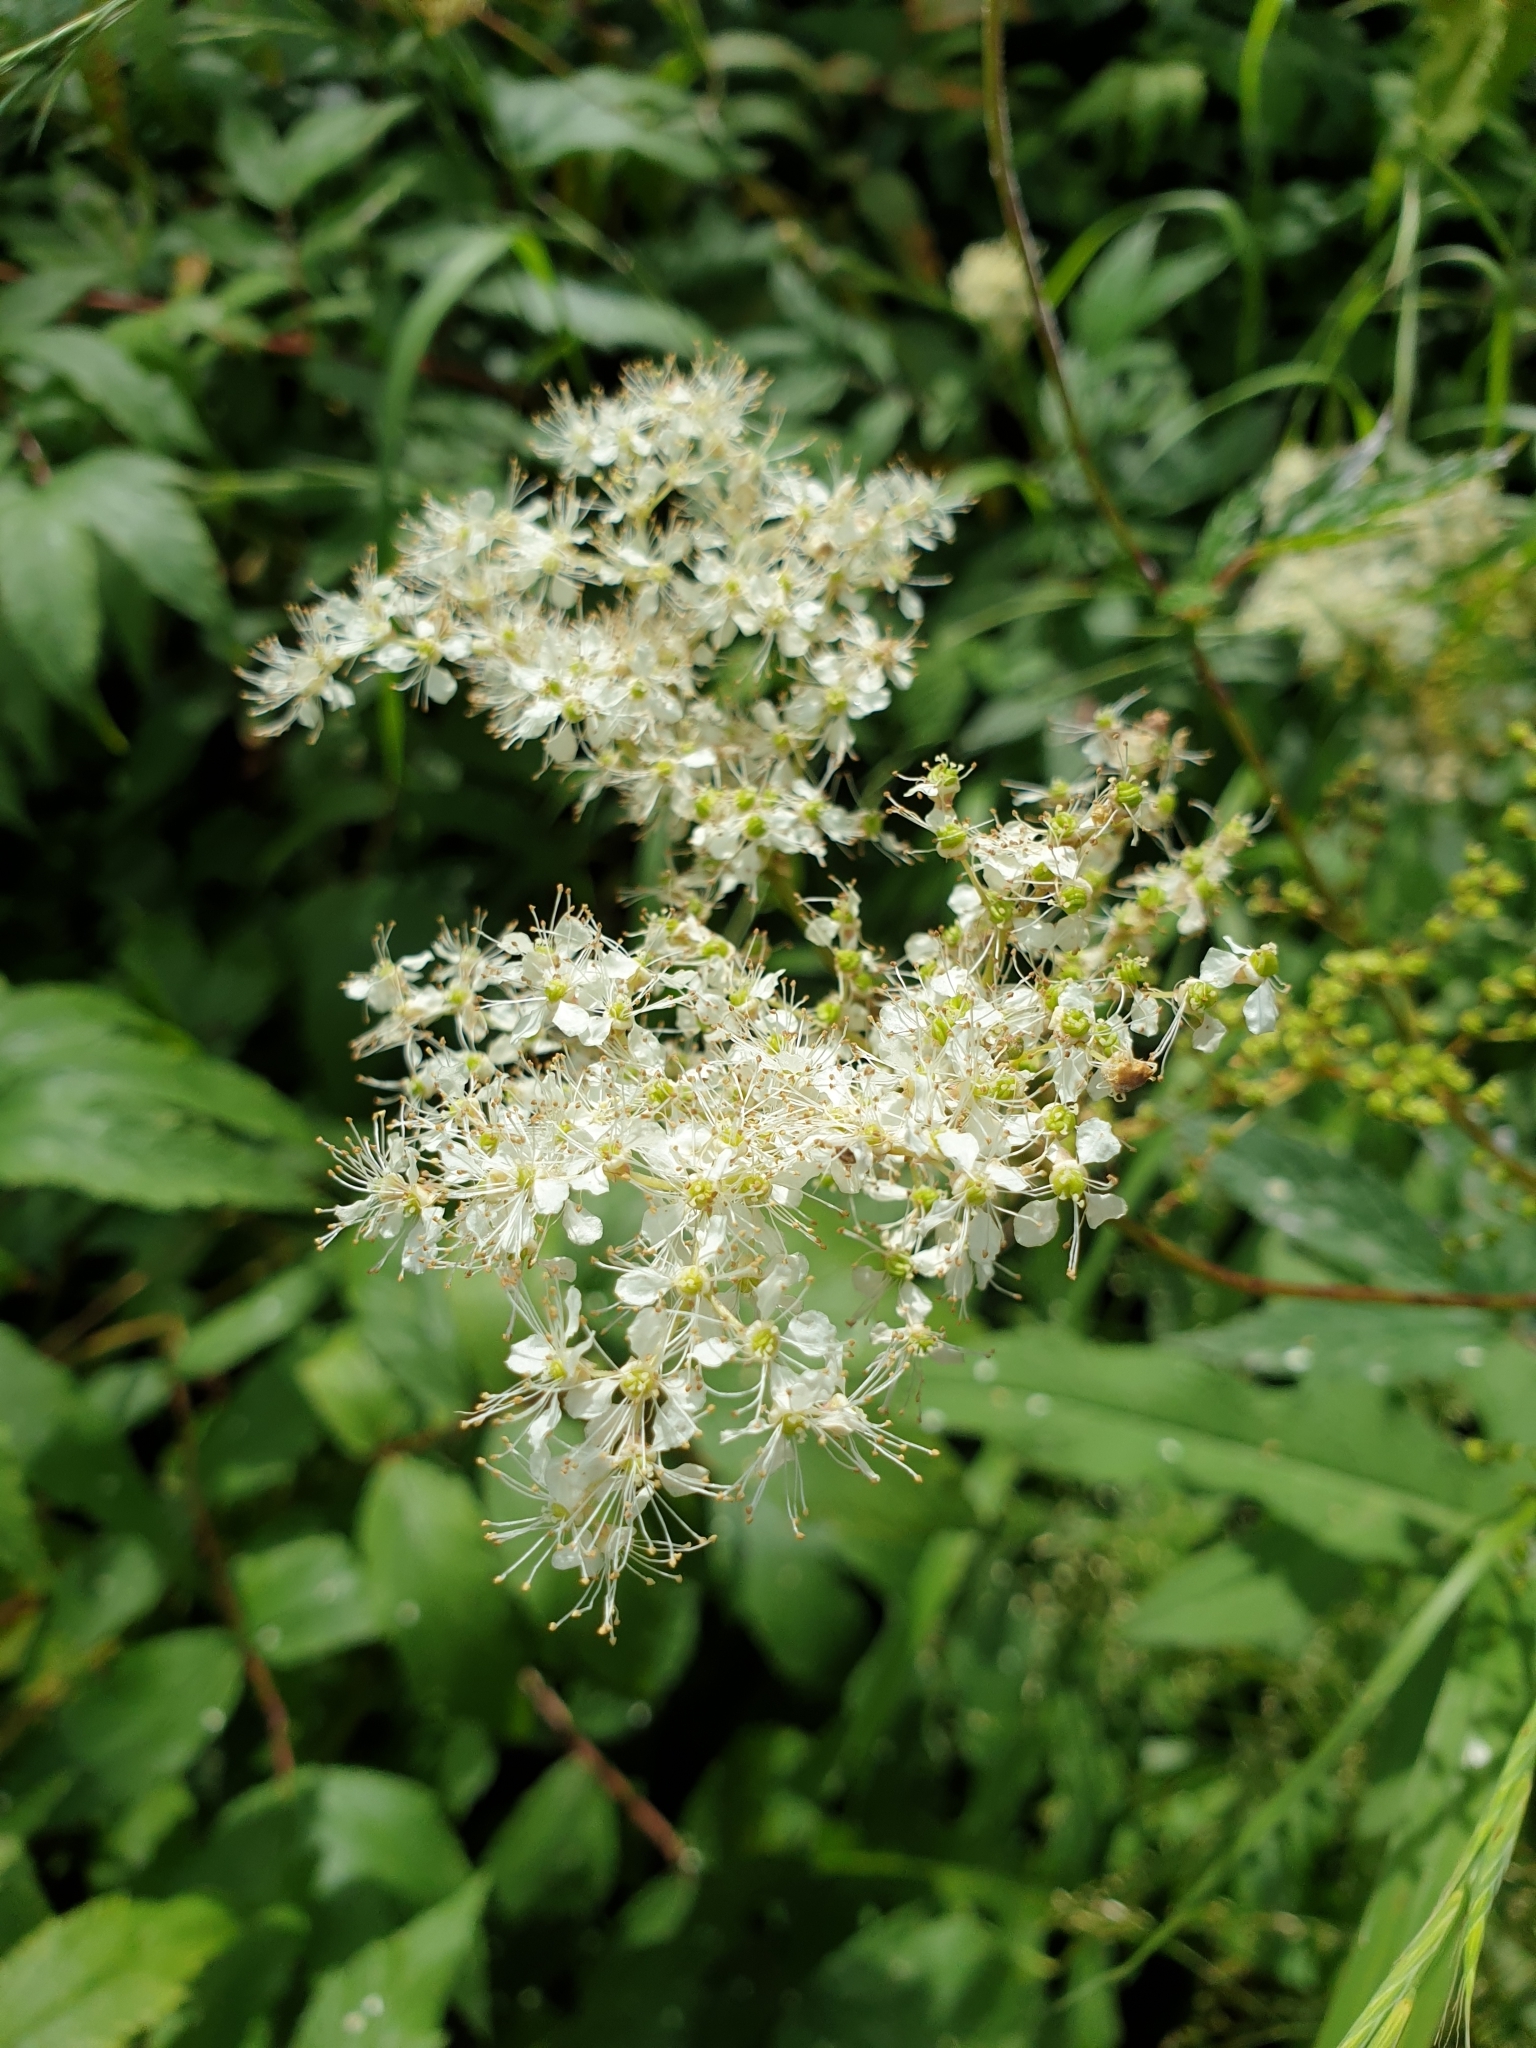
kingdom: Plantae
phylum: Tracheophyta
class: Magnoliopsida
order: Rosales
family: Rosaceae
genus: Filipendula
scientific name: Filipendula ulmaria
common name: Meadowsweet
